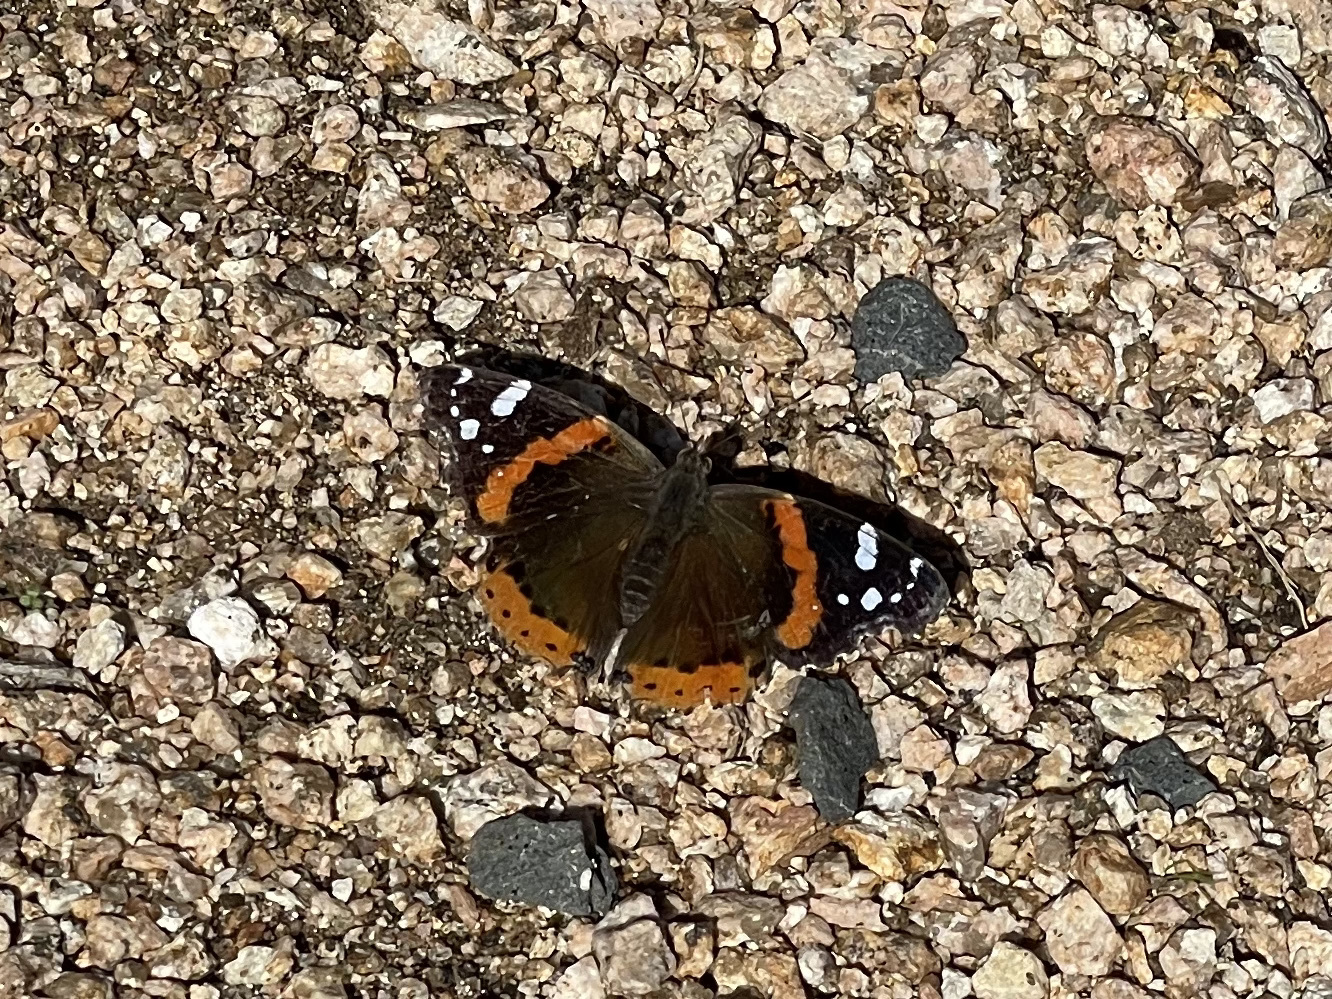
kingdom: Animalia
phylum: Arthropoda
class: Insecta
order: Lepidoptera
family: Nymphalidae
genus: Vanessa
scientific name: Vanessa atalanta
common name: Red admiral
